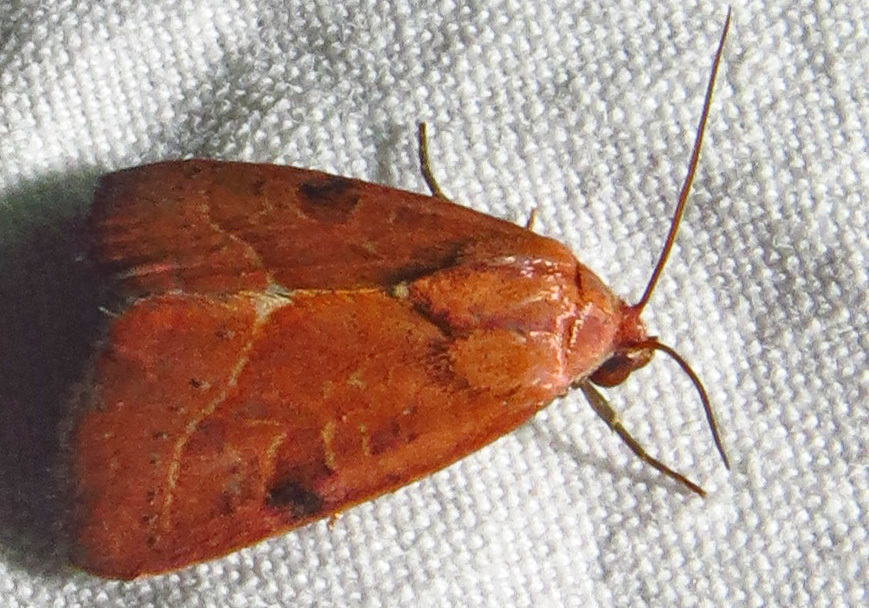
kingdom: Animalia
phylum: Arthropoda
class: Insecta
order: Lepidoptera
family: Noctuidae
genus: Galgula
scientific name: Galgula partita
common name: Wedgeling
